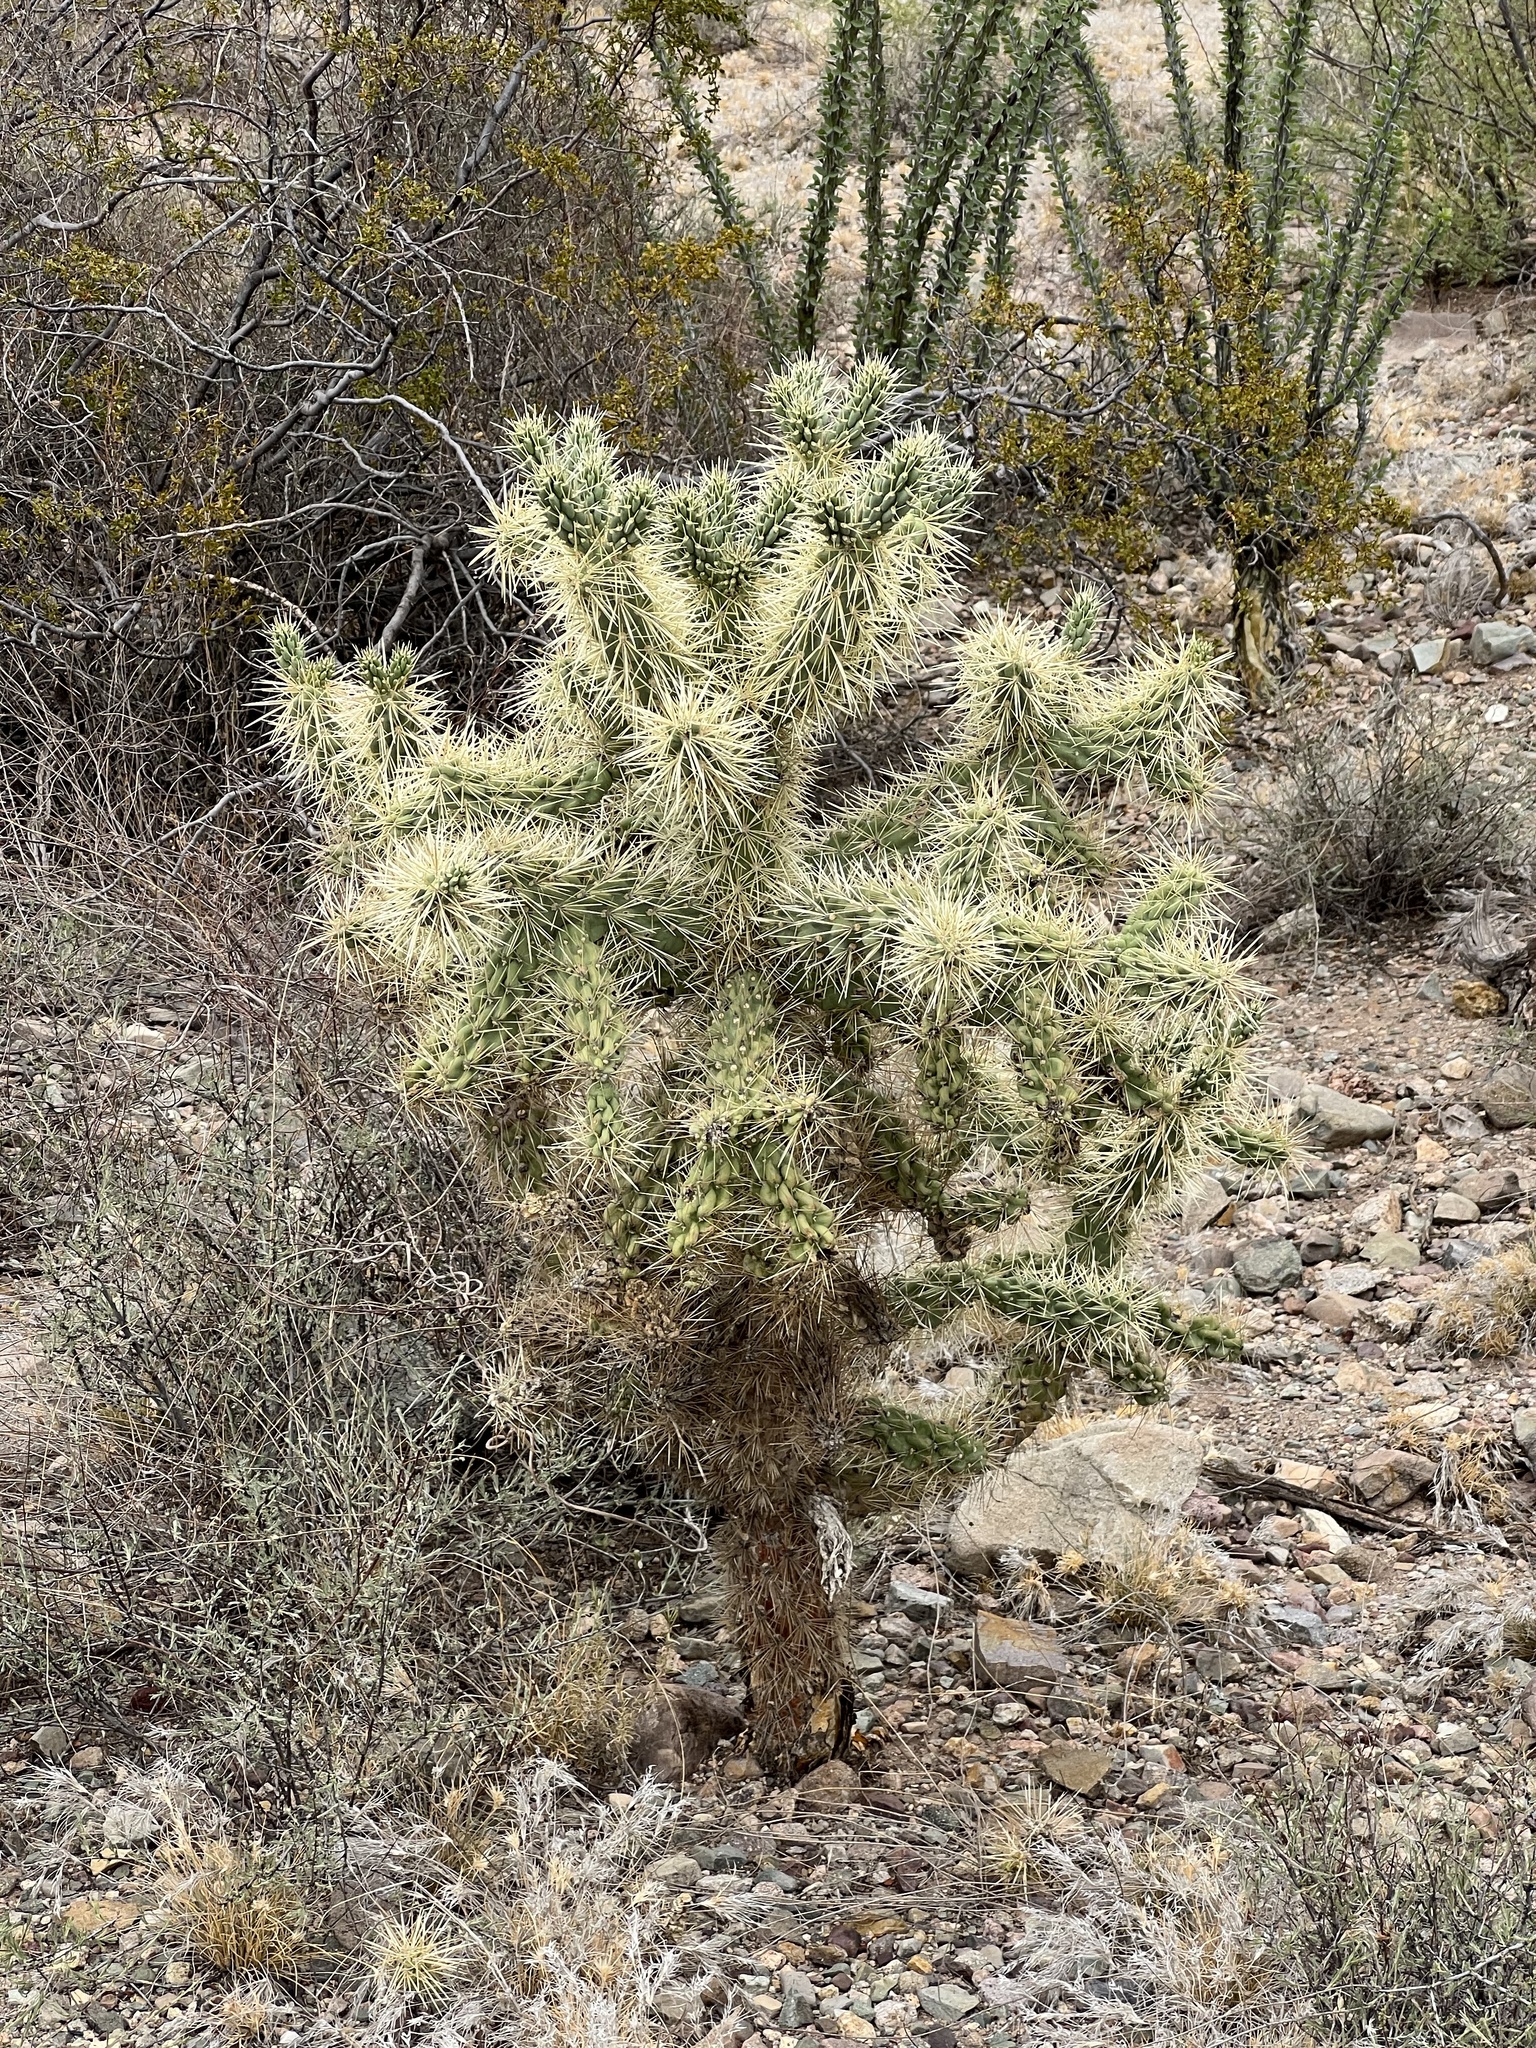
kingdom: Plantae
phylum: Tracheophyta
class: Magnoliopsida
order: Caryophyllales
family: Cactaceae
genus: Cylindropuntia
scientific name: Cylindropuntia fulgida
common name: Jumping cholla
